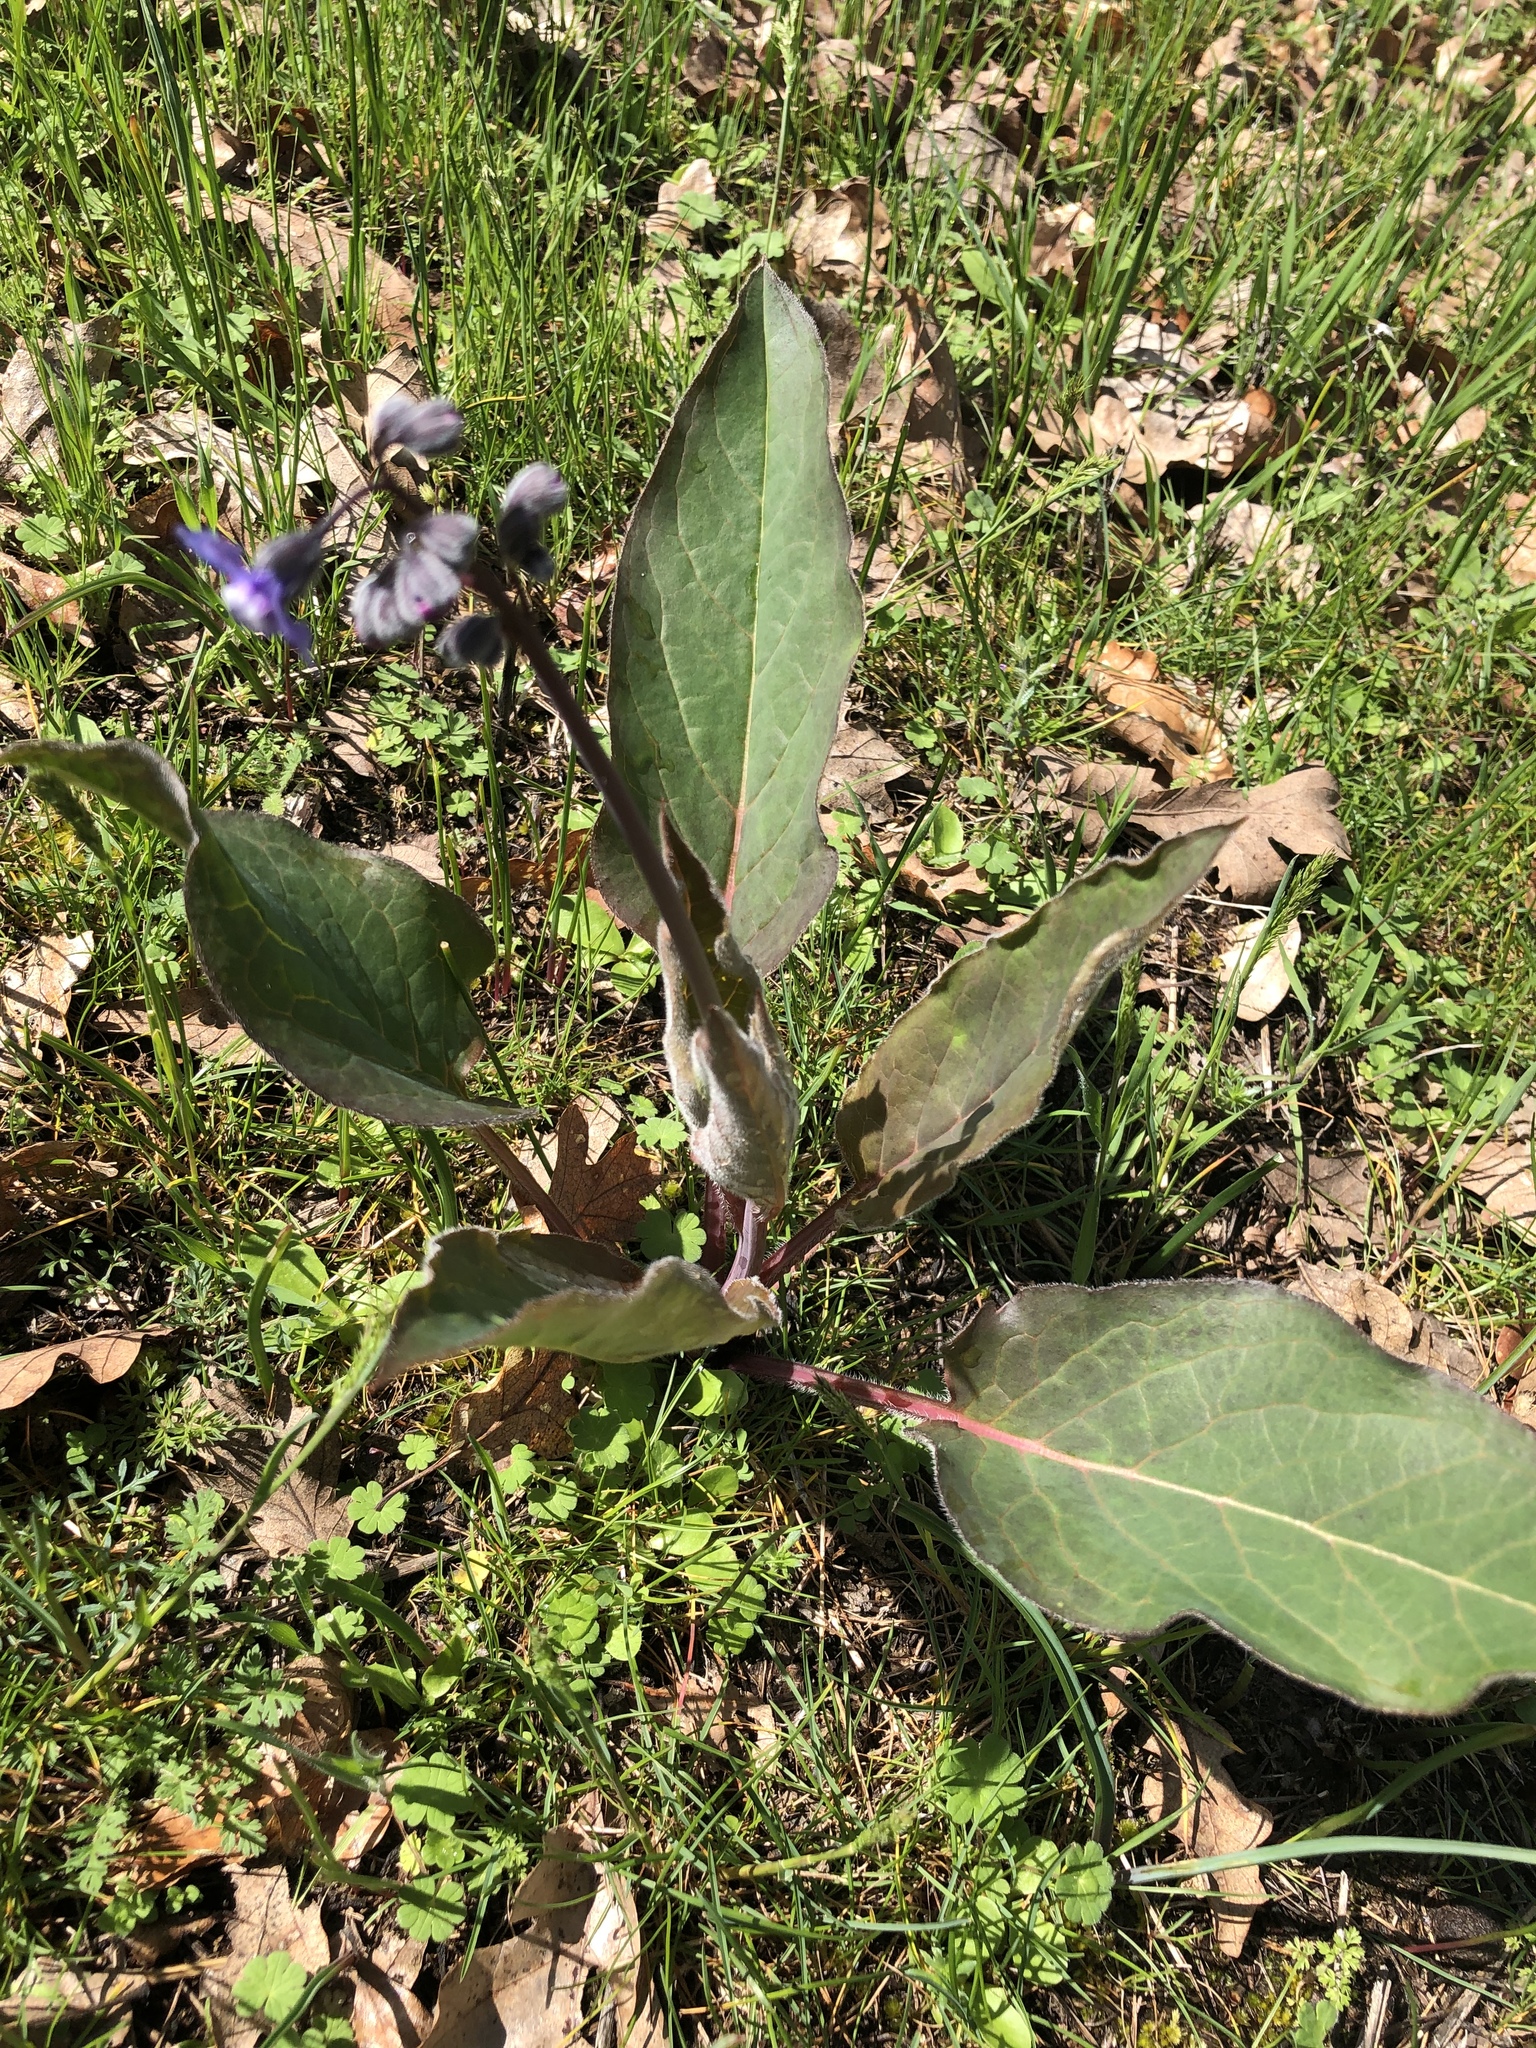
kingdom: Plantae
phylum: Tracheophyta
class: Magnoliopsida
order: Boraginales
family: Boraginaceae
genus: Adelinia
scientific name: Adelinia grande
